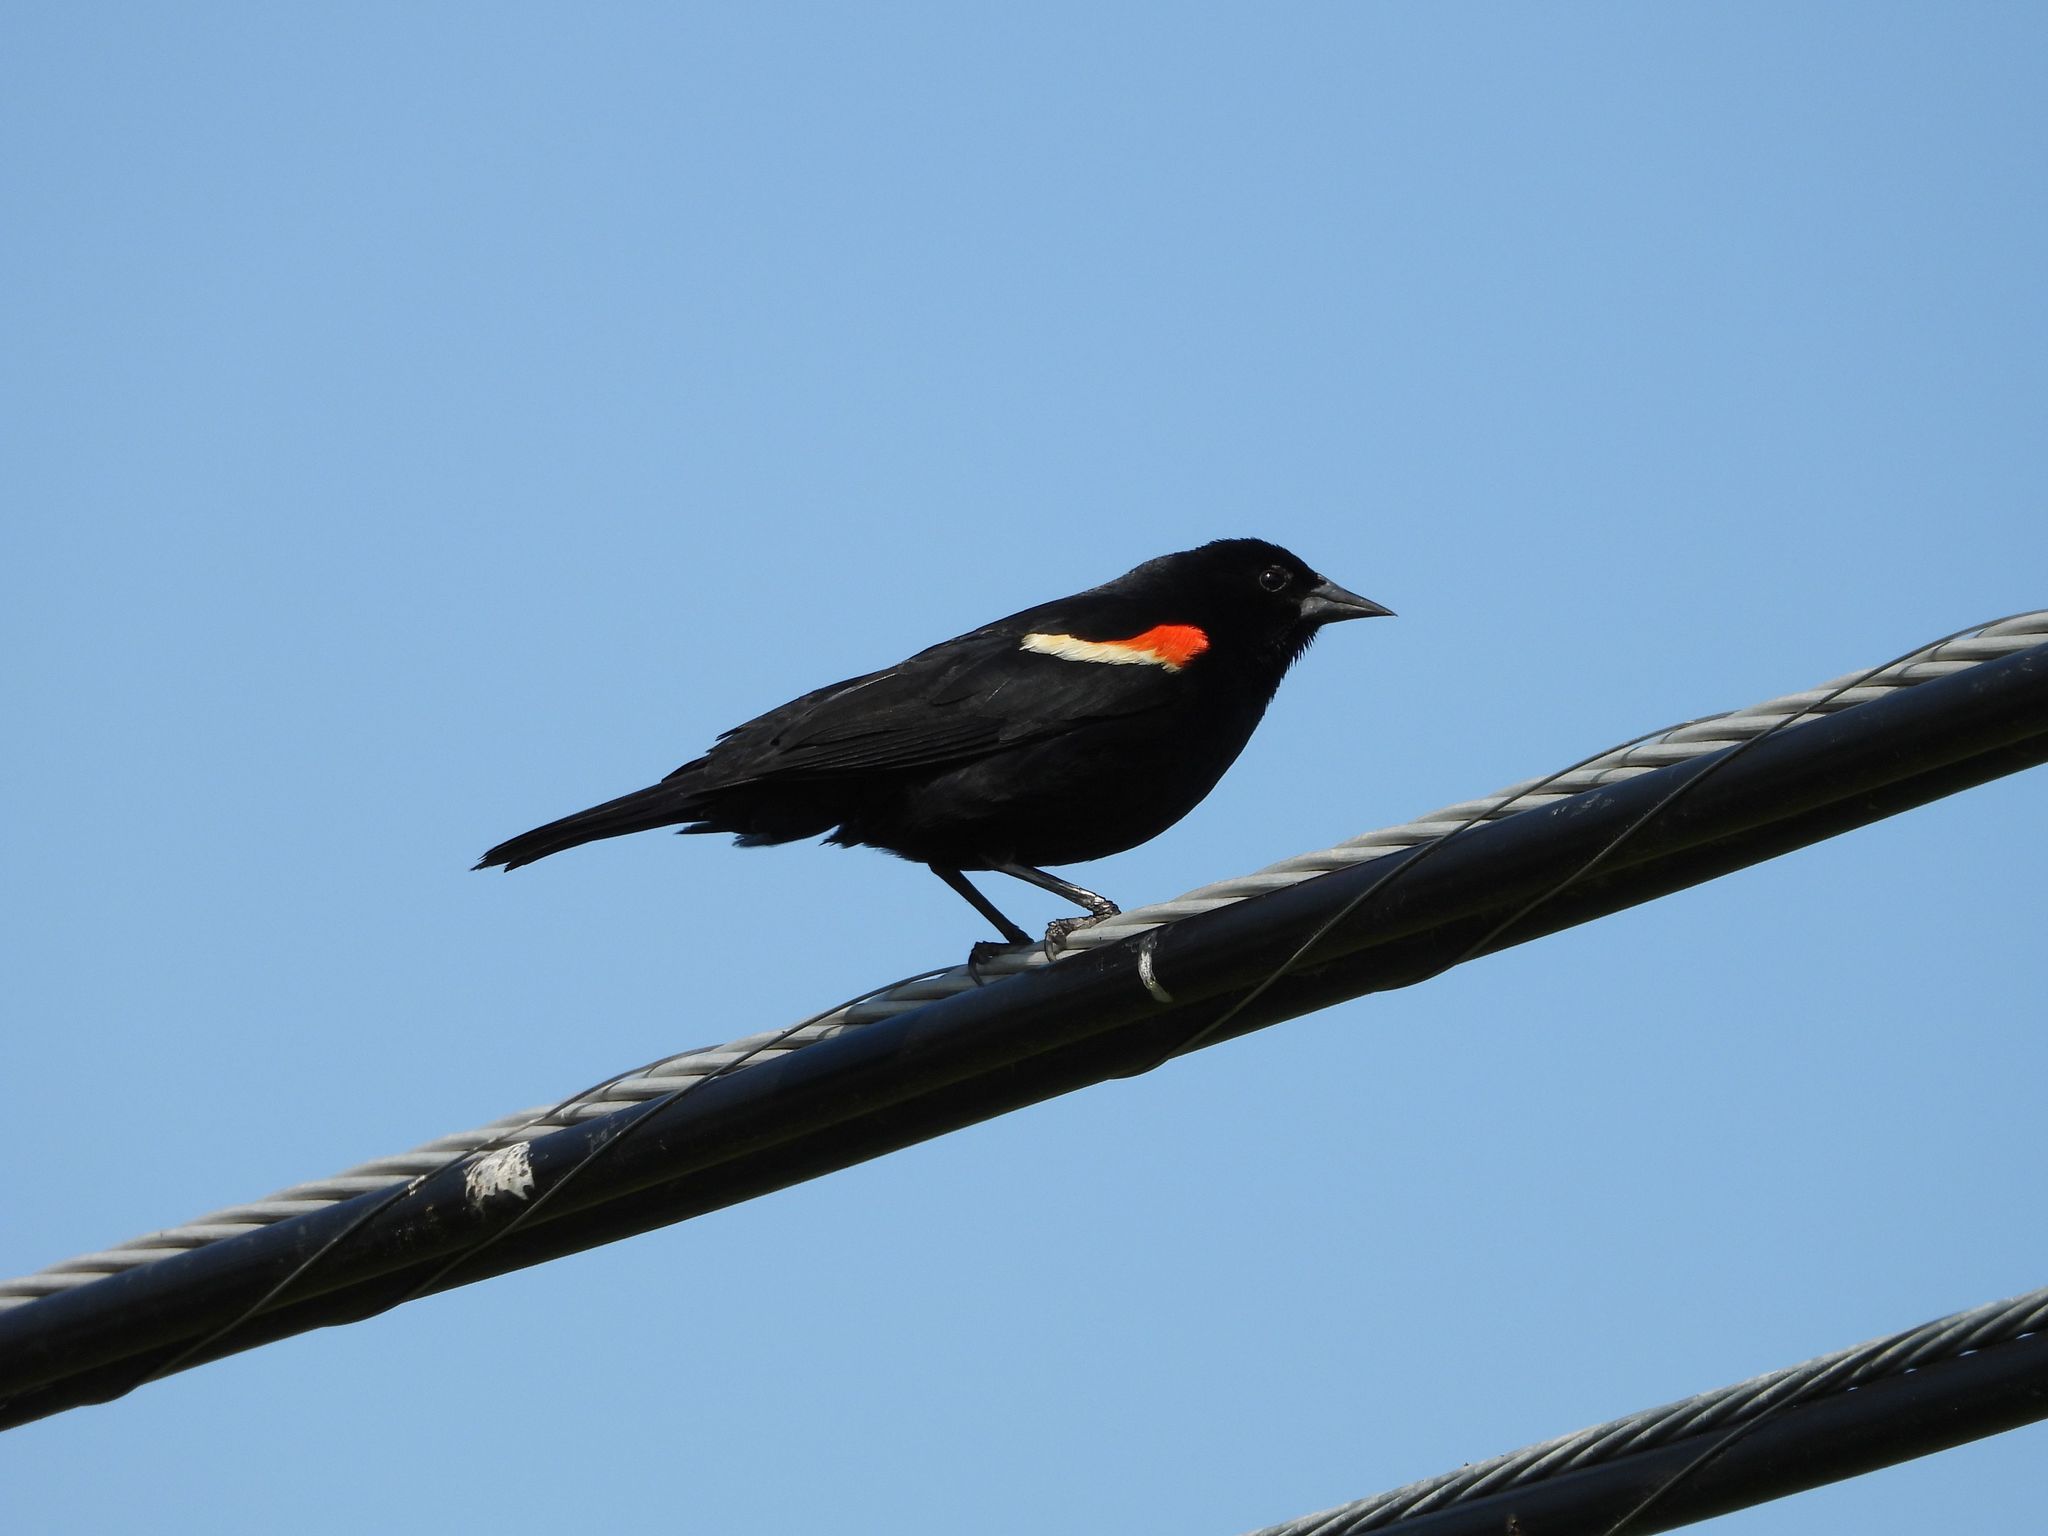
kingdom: Animalia
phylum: Chordata
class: Aves
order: Passeriformes
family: Icteridae
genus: Agelaius
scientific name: Agelaius phoeniceus
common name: Red-winged blackbird
